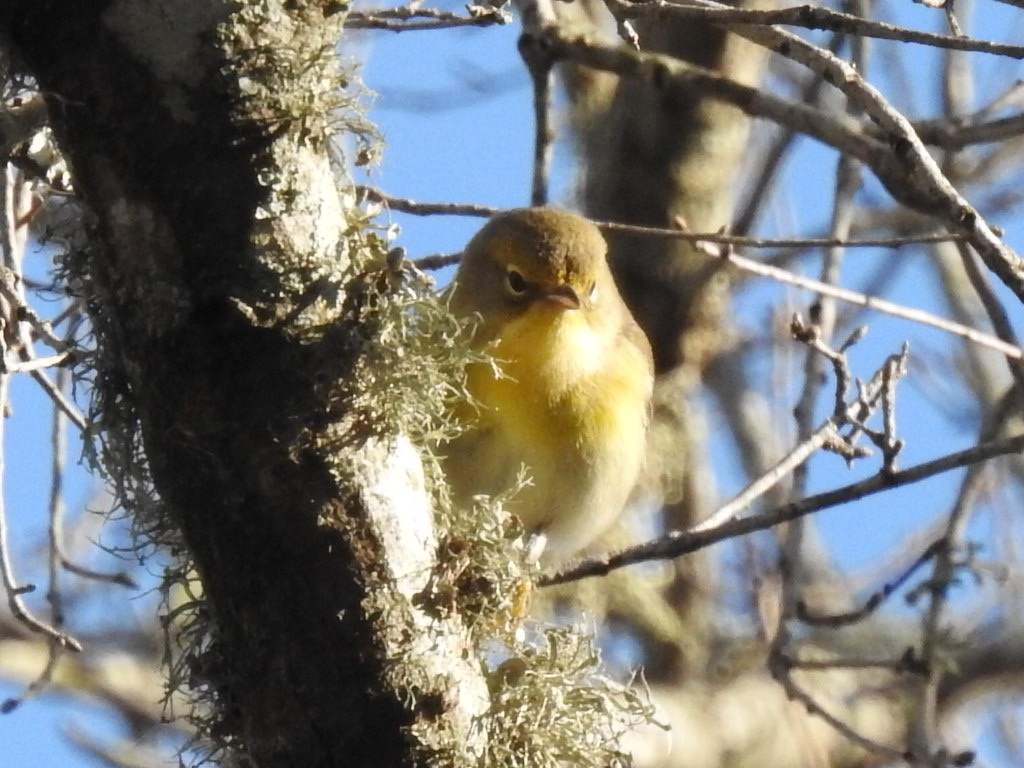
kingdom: Animalia
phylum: Chordata
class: Aves
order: Passeriformes
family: Parulidae
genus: Setophaga
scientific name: Setophaga pinus
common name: Pine warbler
